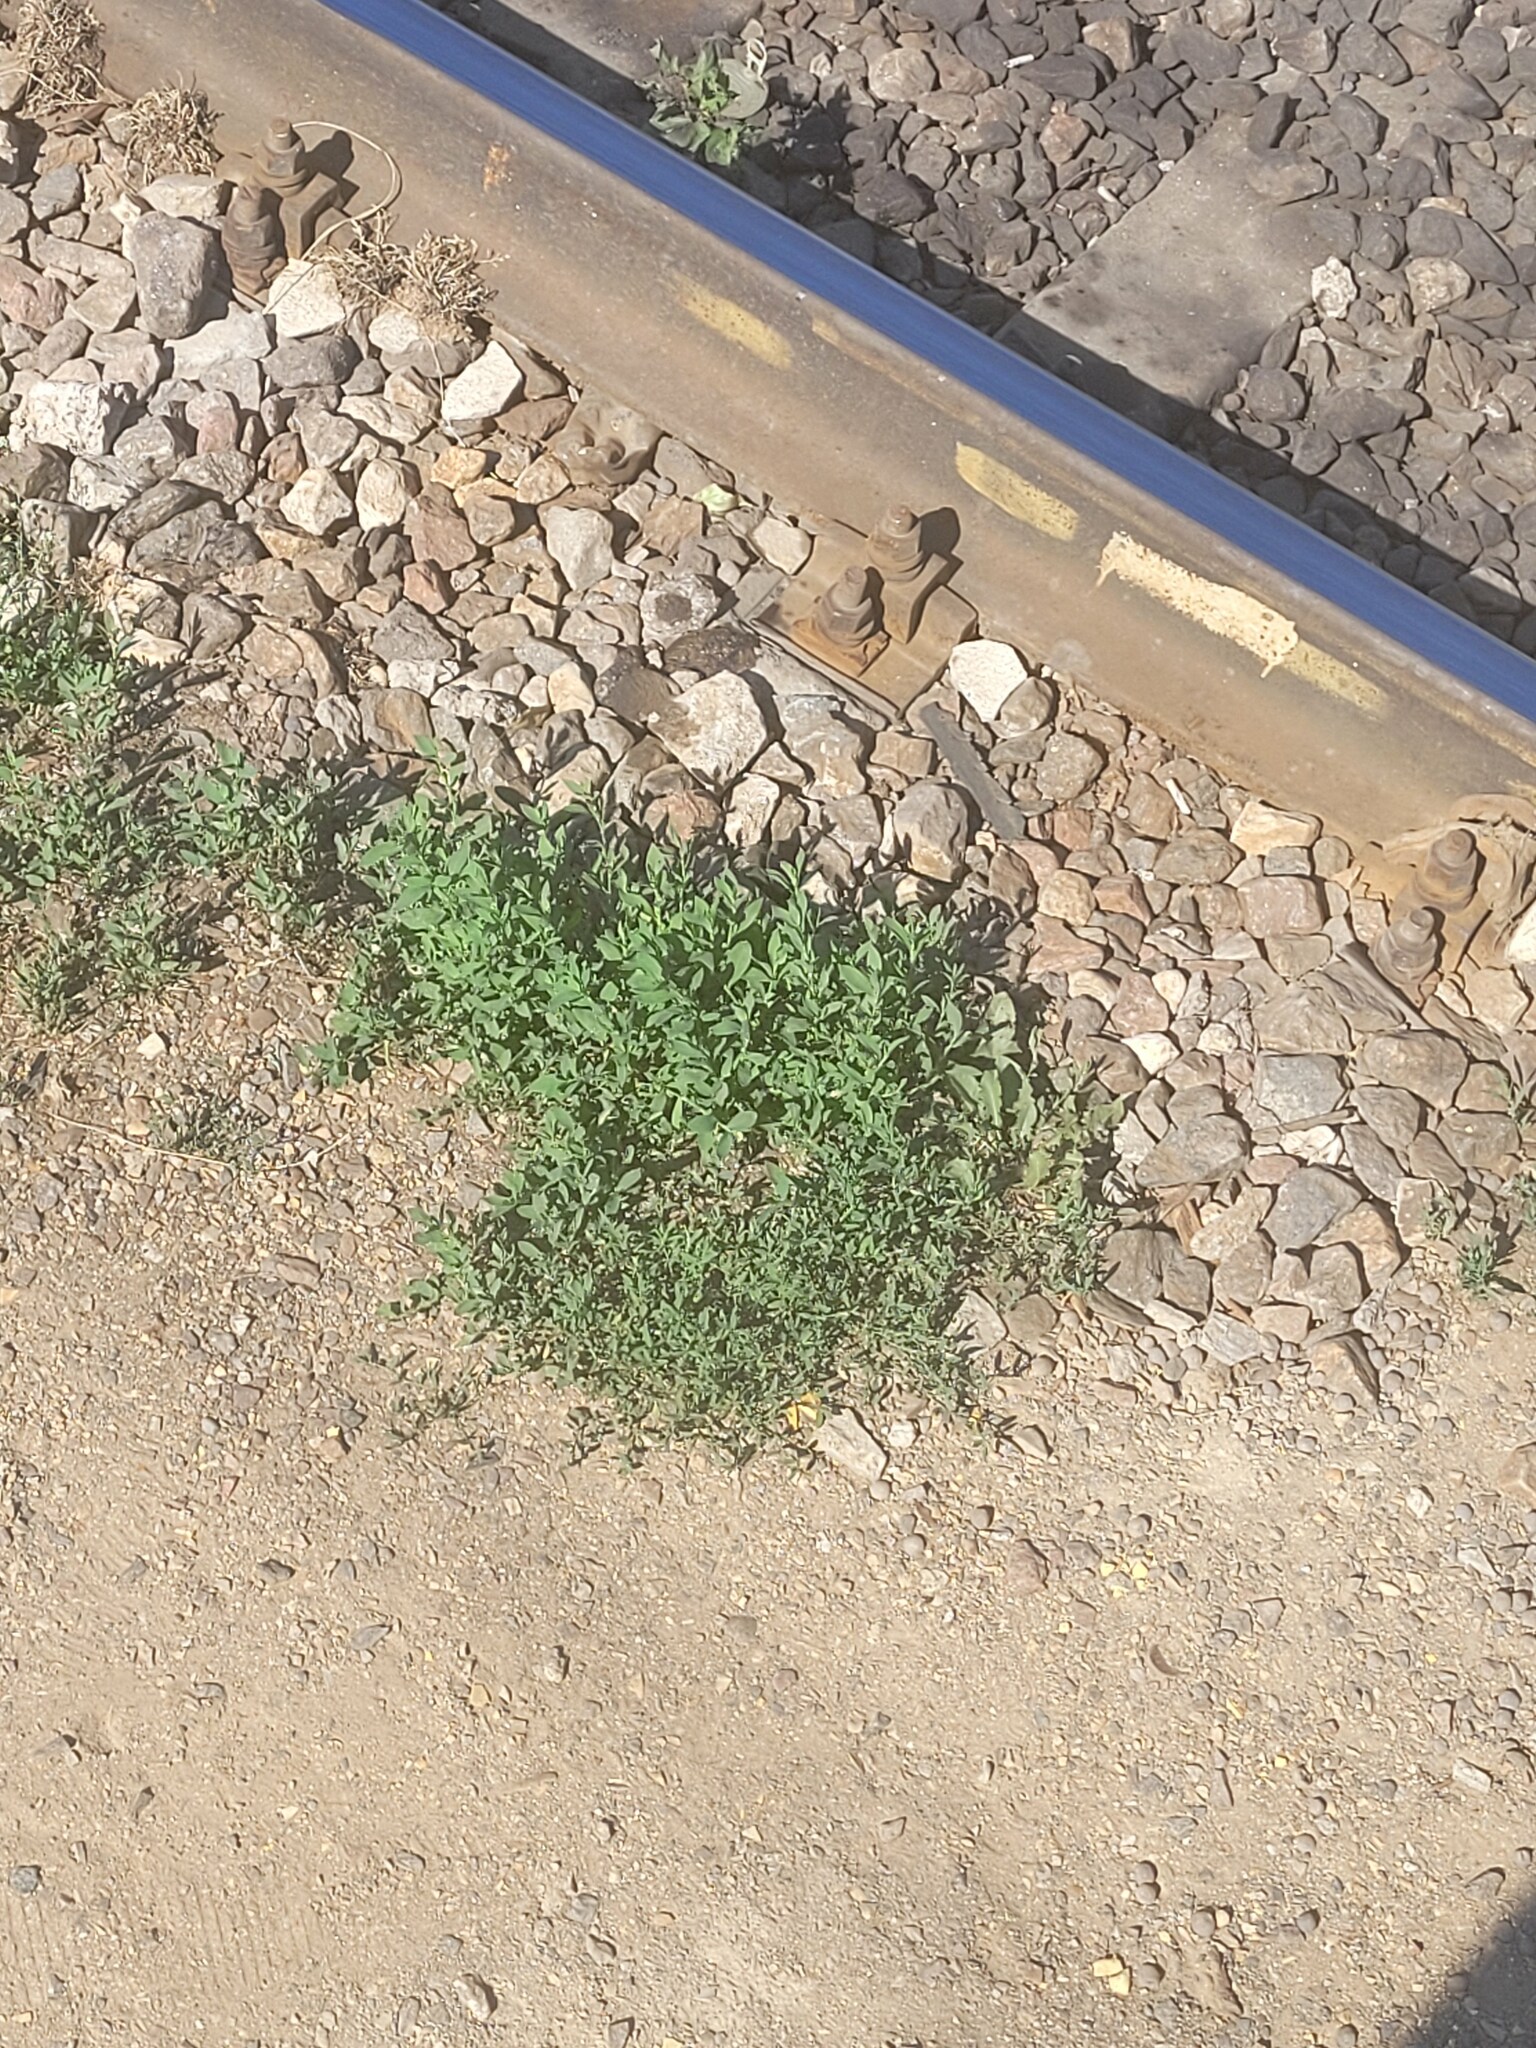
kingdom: Plantae
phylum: Tracheophyta
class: Magnoliopsida
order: Caryophyllales
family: Polygonaceae
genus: Polygonum
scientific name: Polygonum
